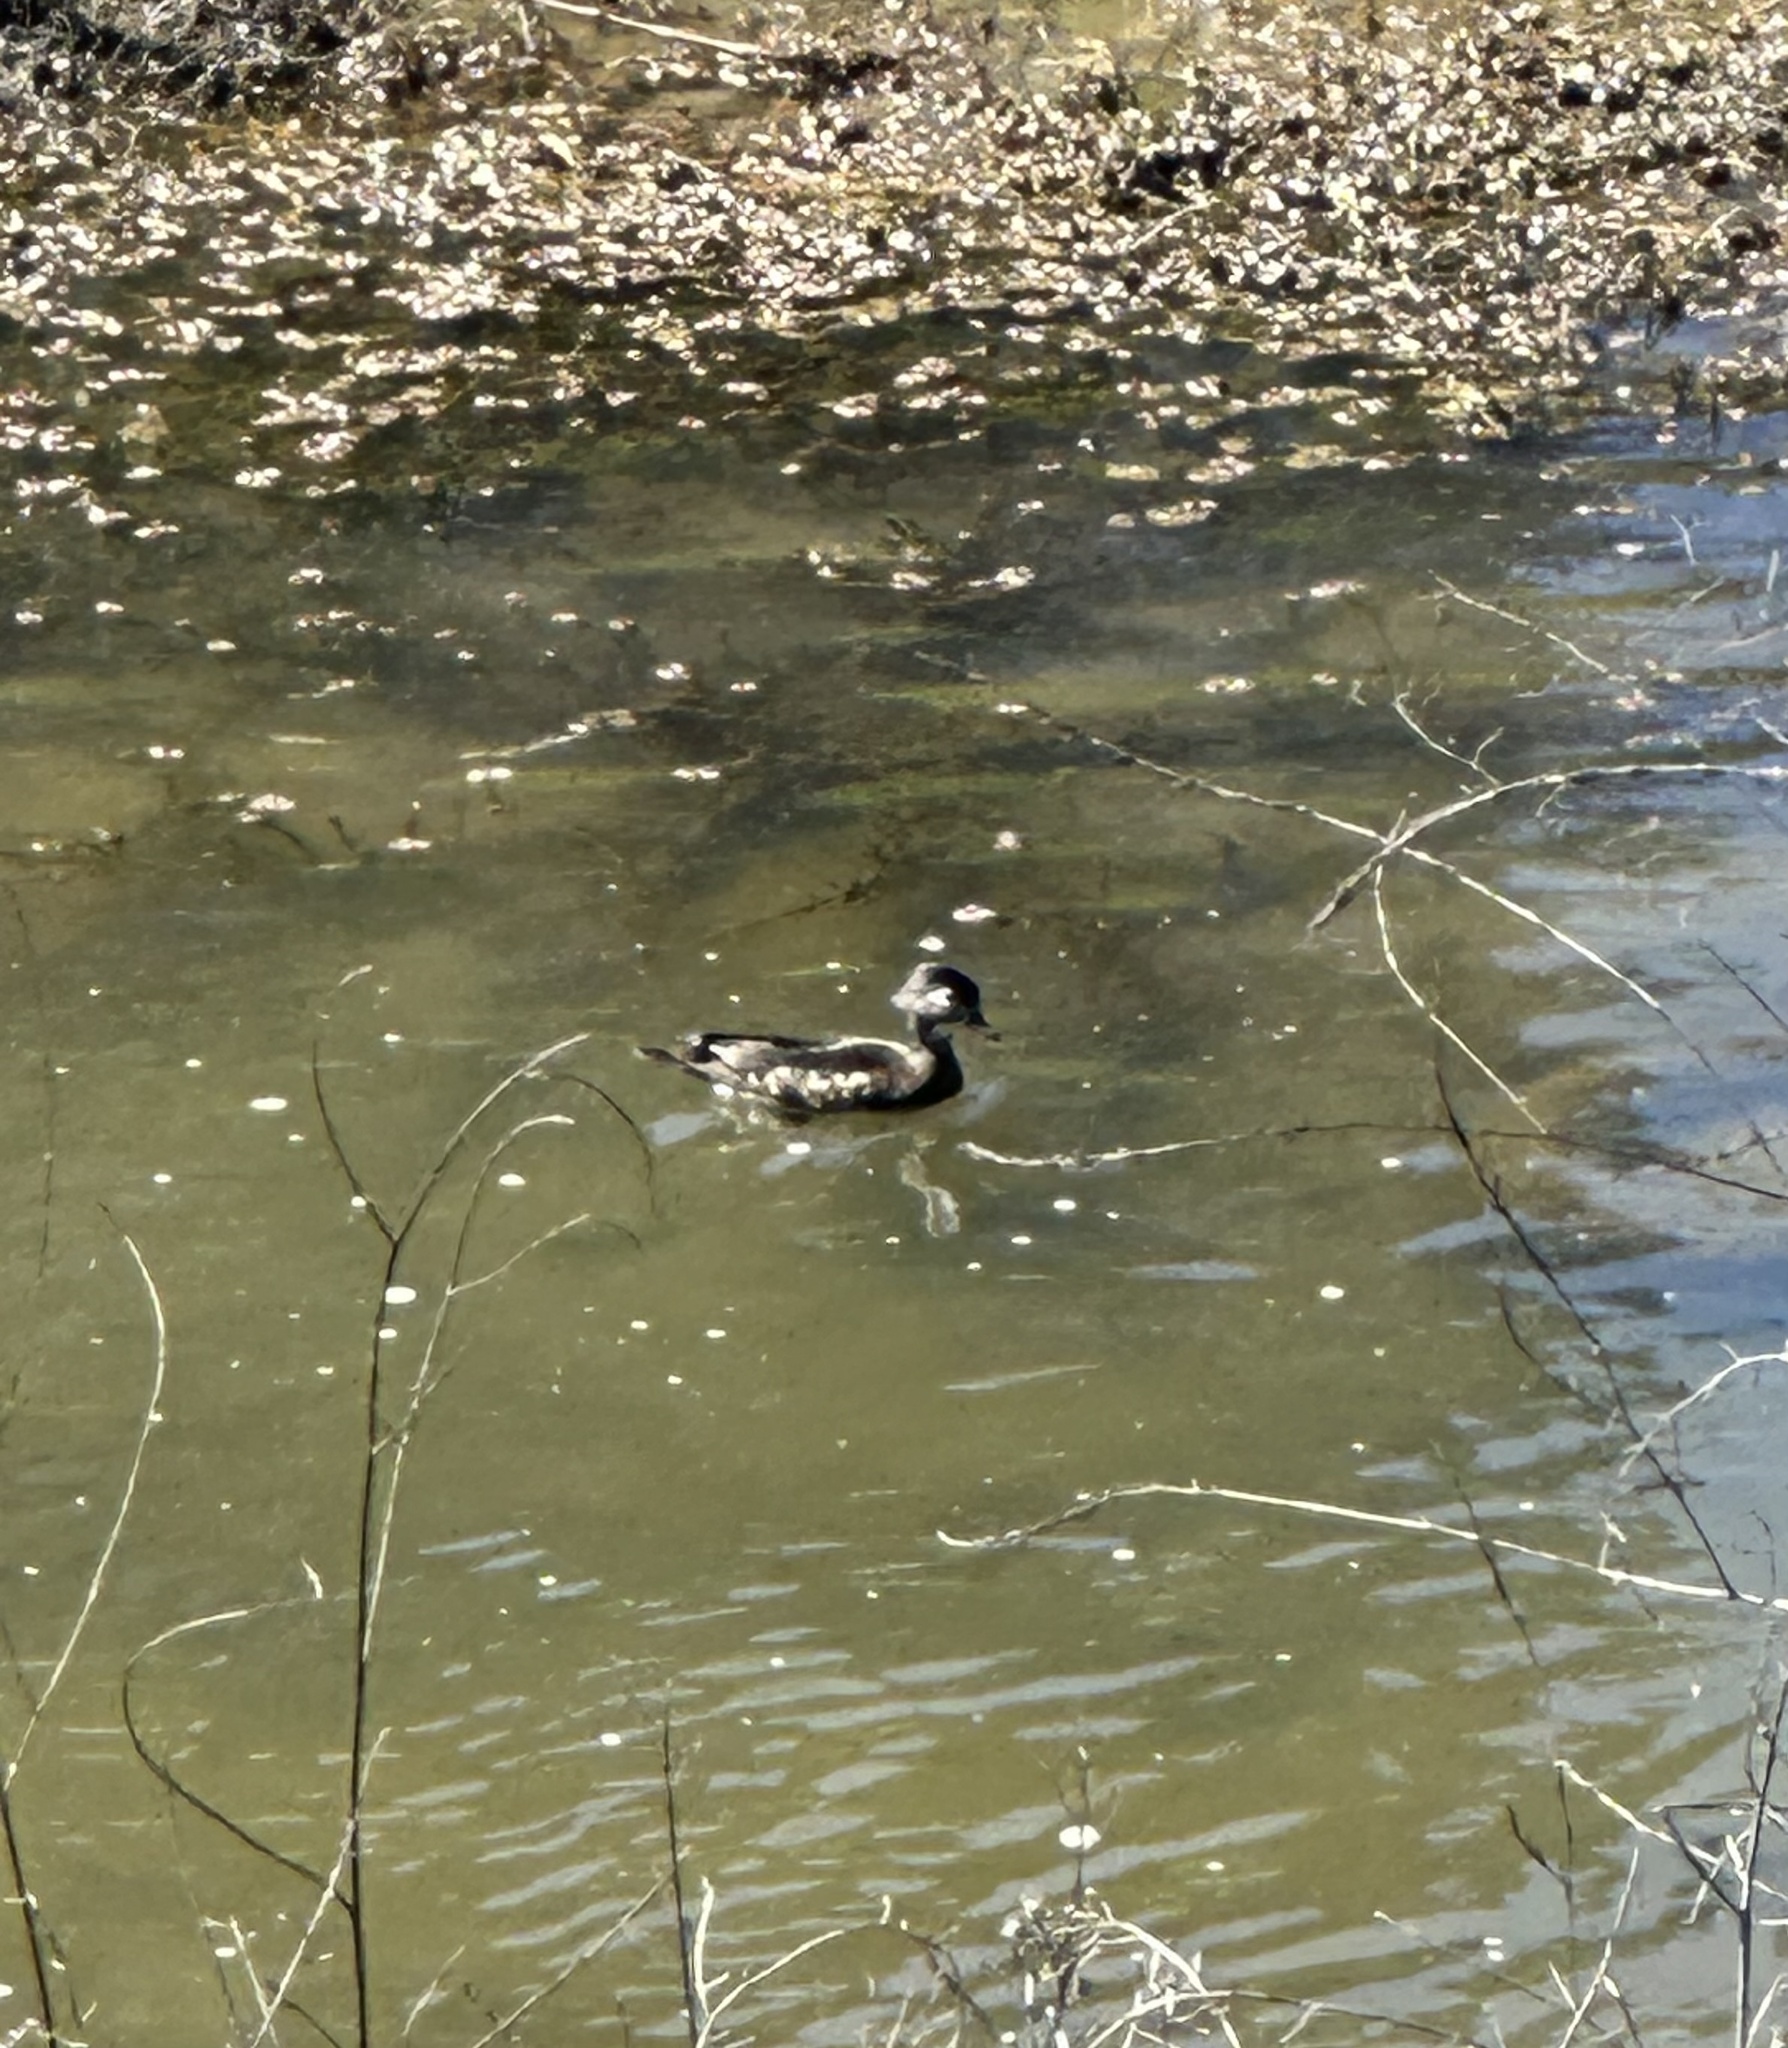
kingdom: Animalia
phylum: Chordata
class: Aves
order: Anseriformes
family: Anatidae
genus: Aix
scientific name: Aix sponsa
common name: Wood duck
